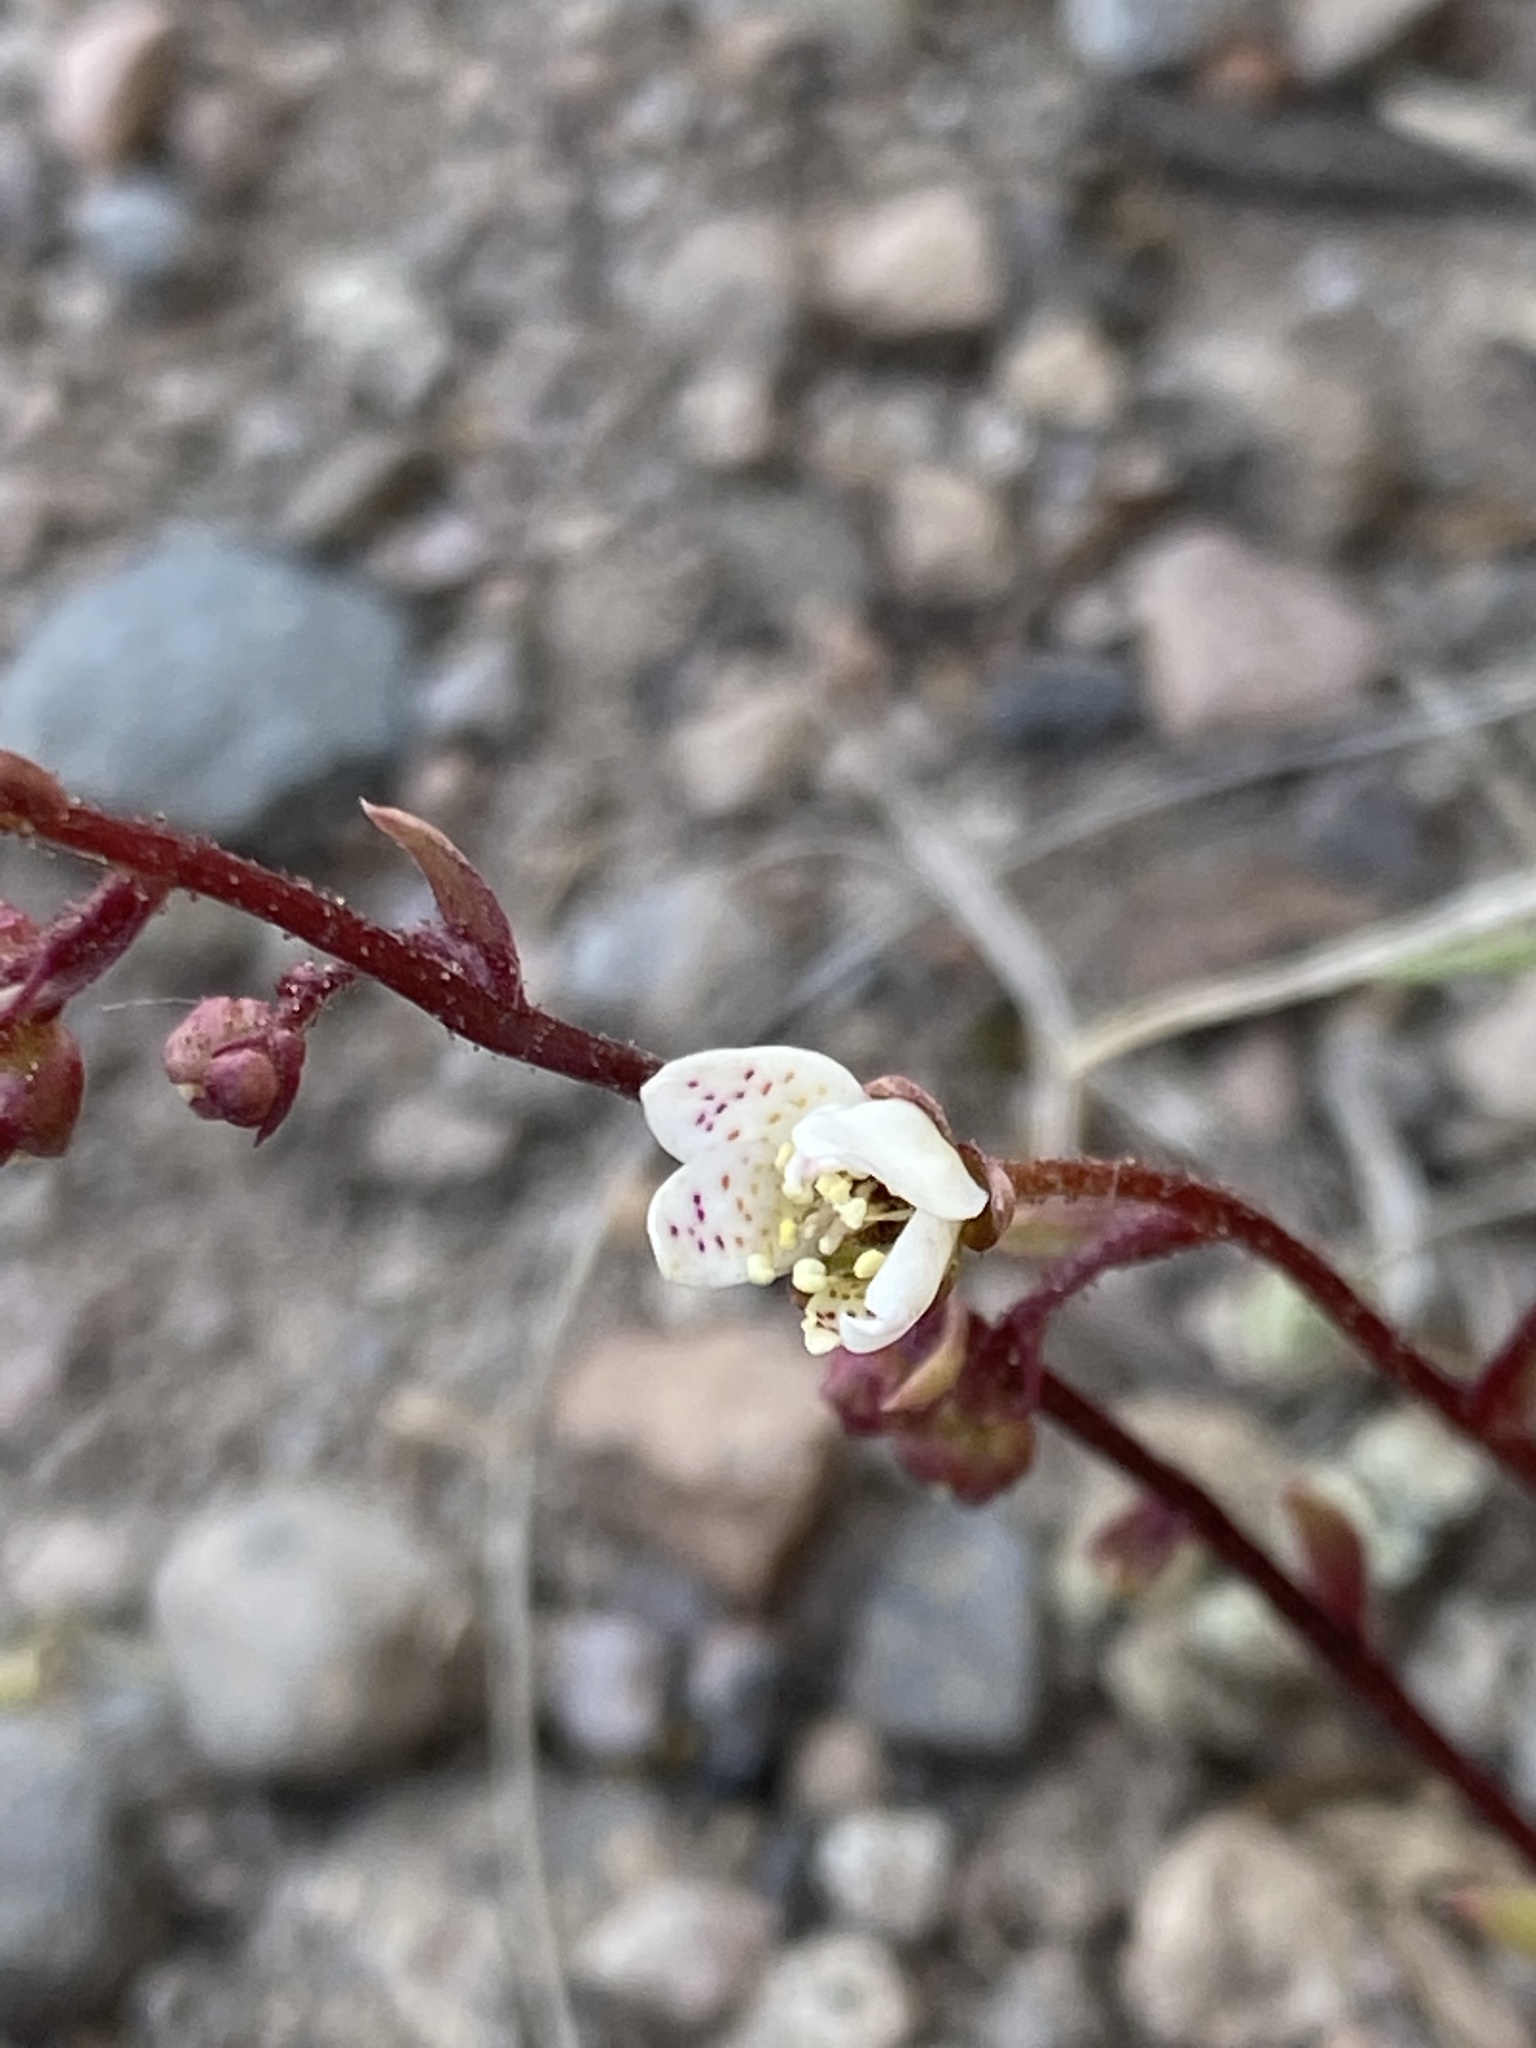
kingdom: Plantae
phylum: Tracheophyta
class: Magnoliopsida
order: Saxifragales
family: Saxifragaceae
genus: Saxifraga
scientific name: Saxifraga bronchialis
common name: Matted saxifrage
